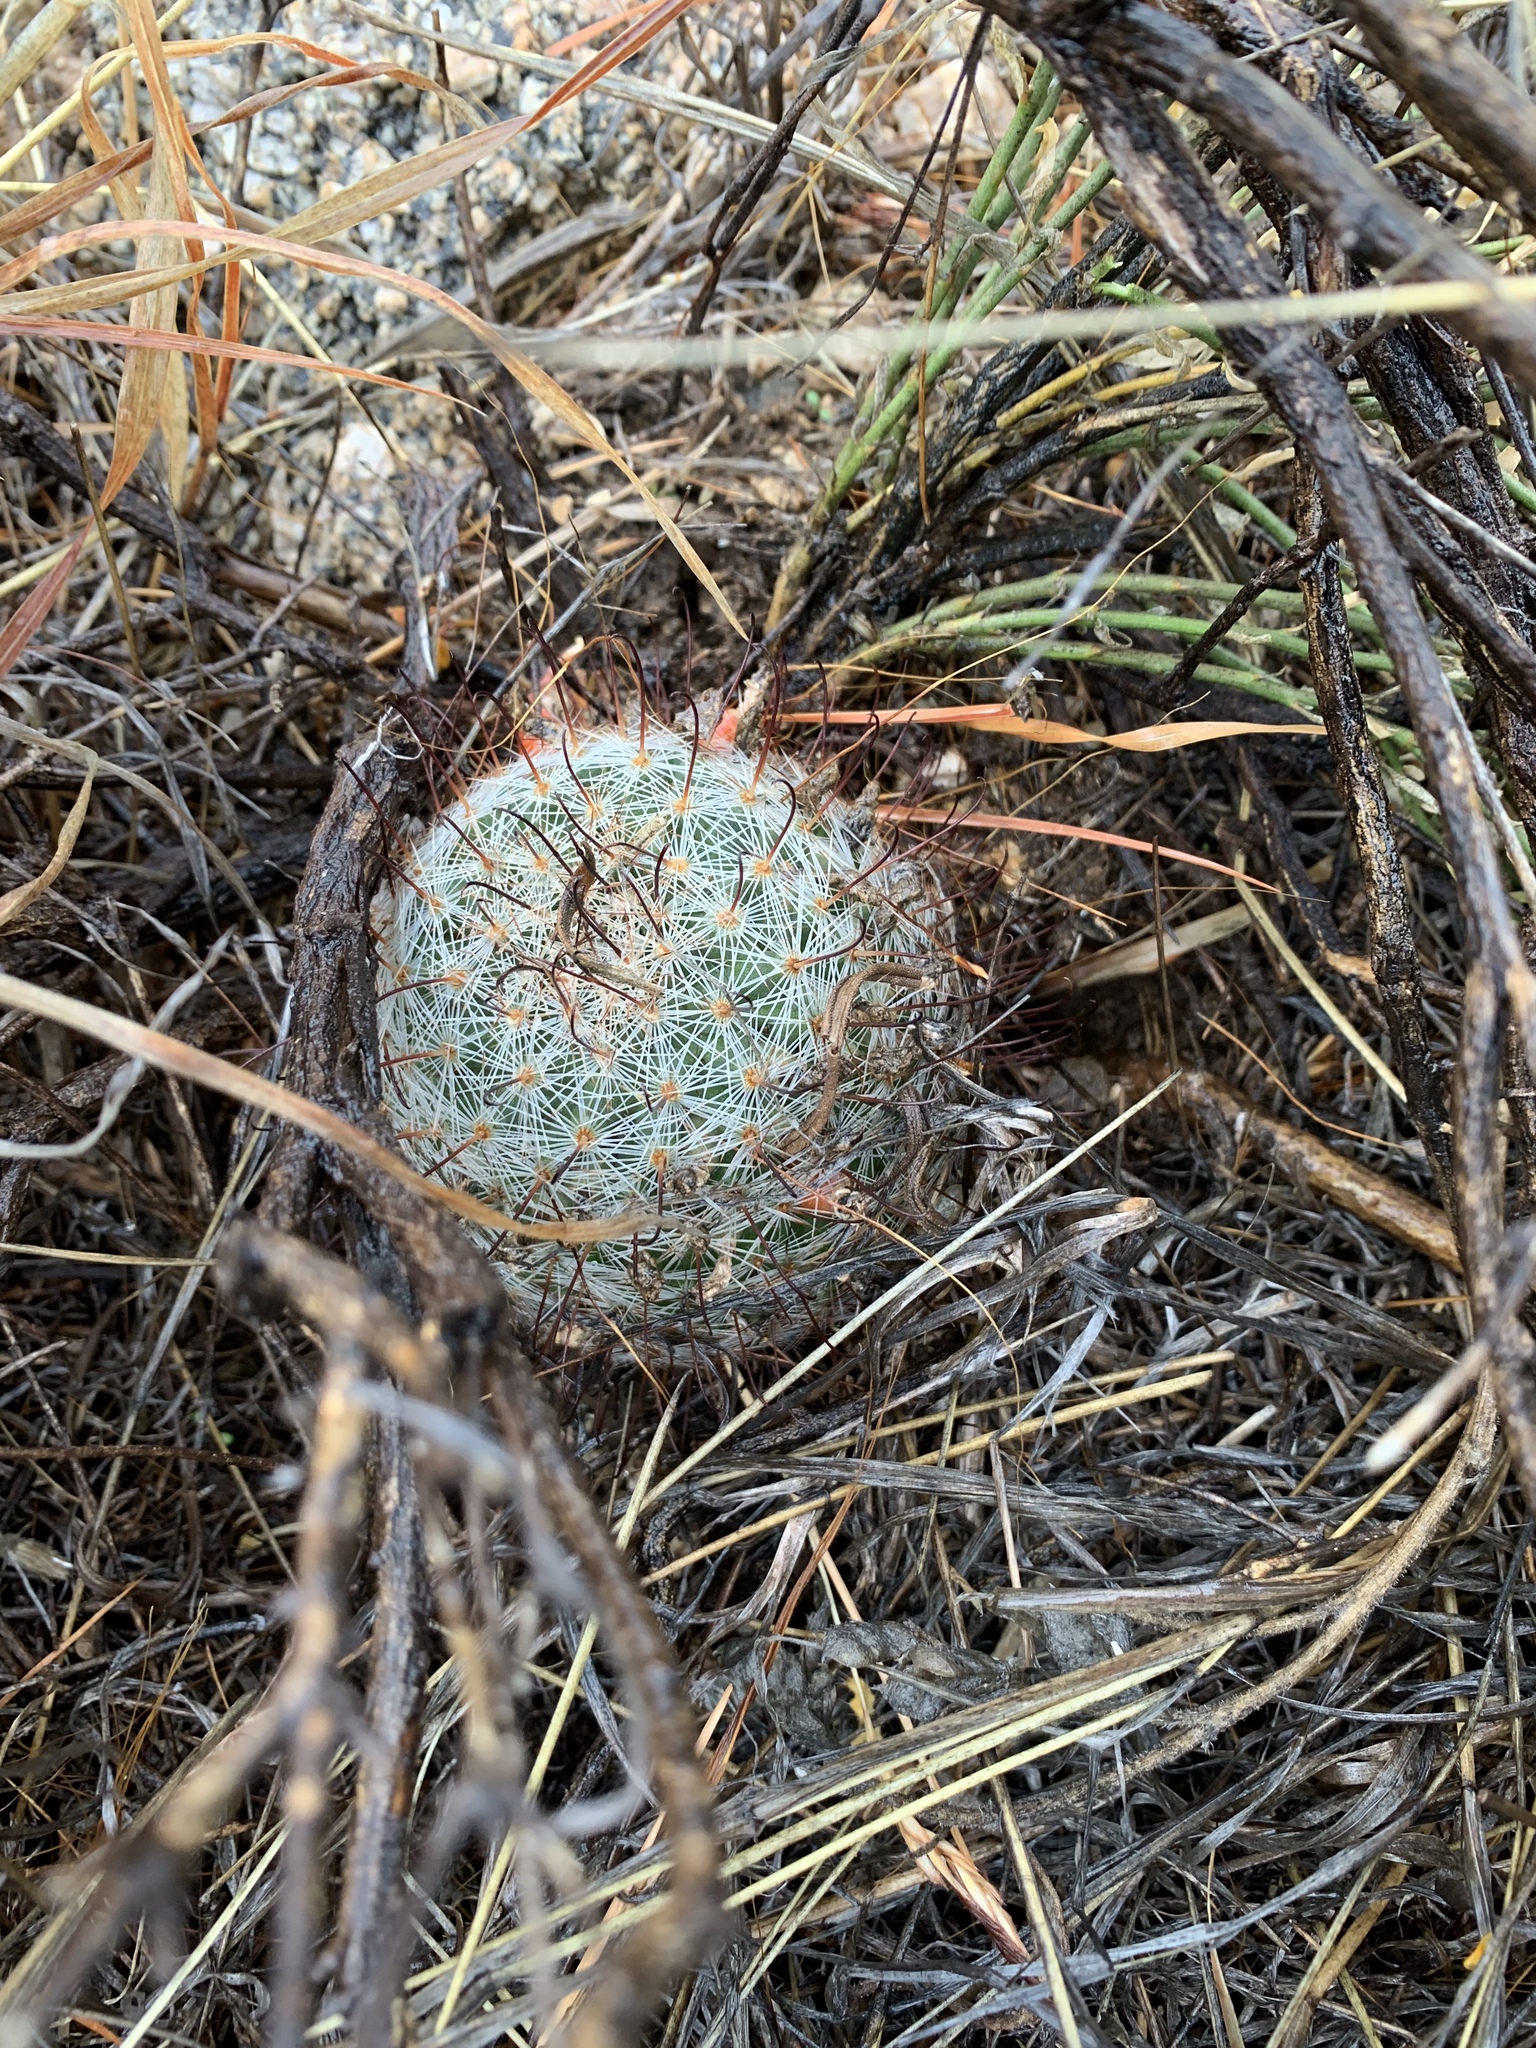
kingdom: Plantae
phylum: Tracheophyta
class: Magnoliopsida
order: Caryophyllales
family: Cactaceae
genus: Cochemiea
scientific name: Cochemiea grahamii
